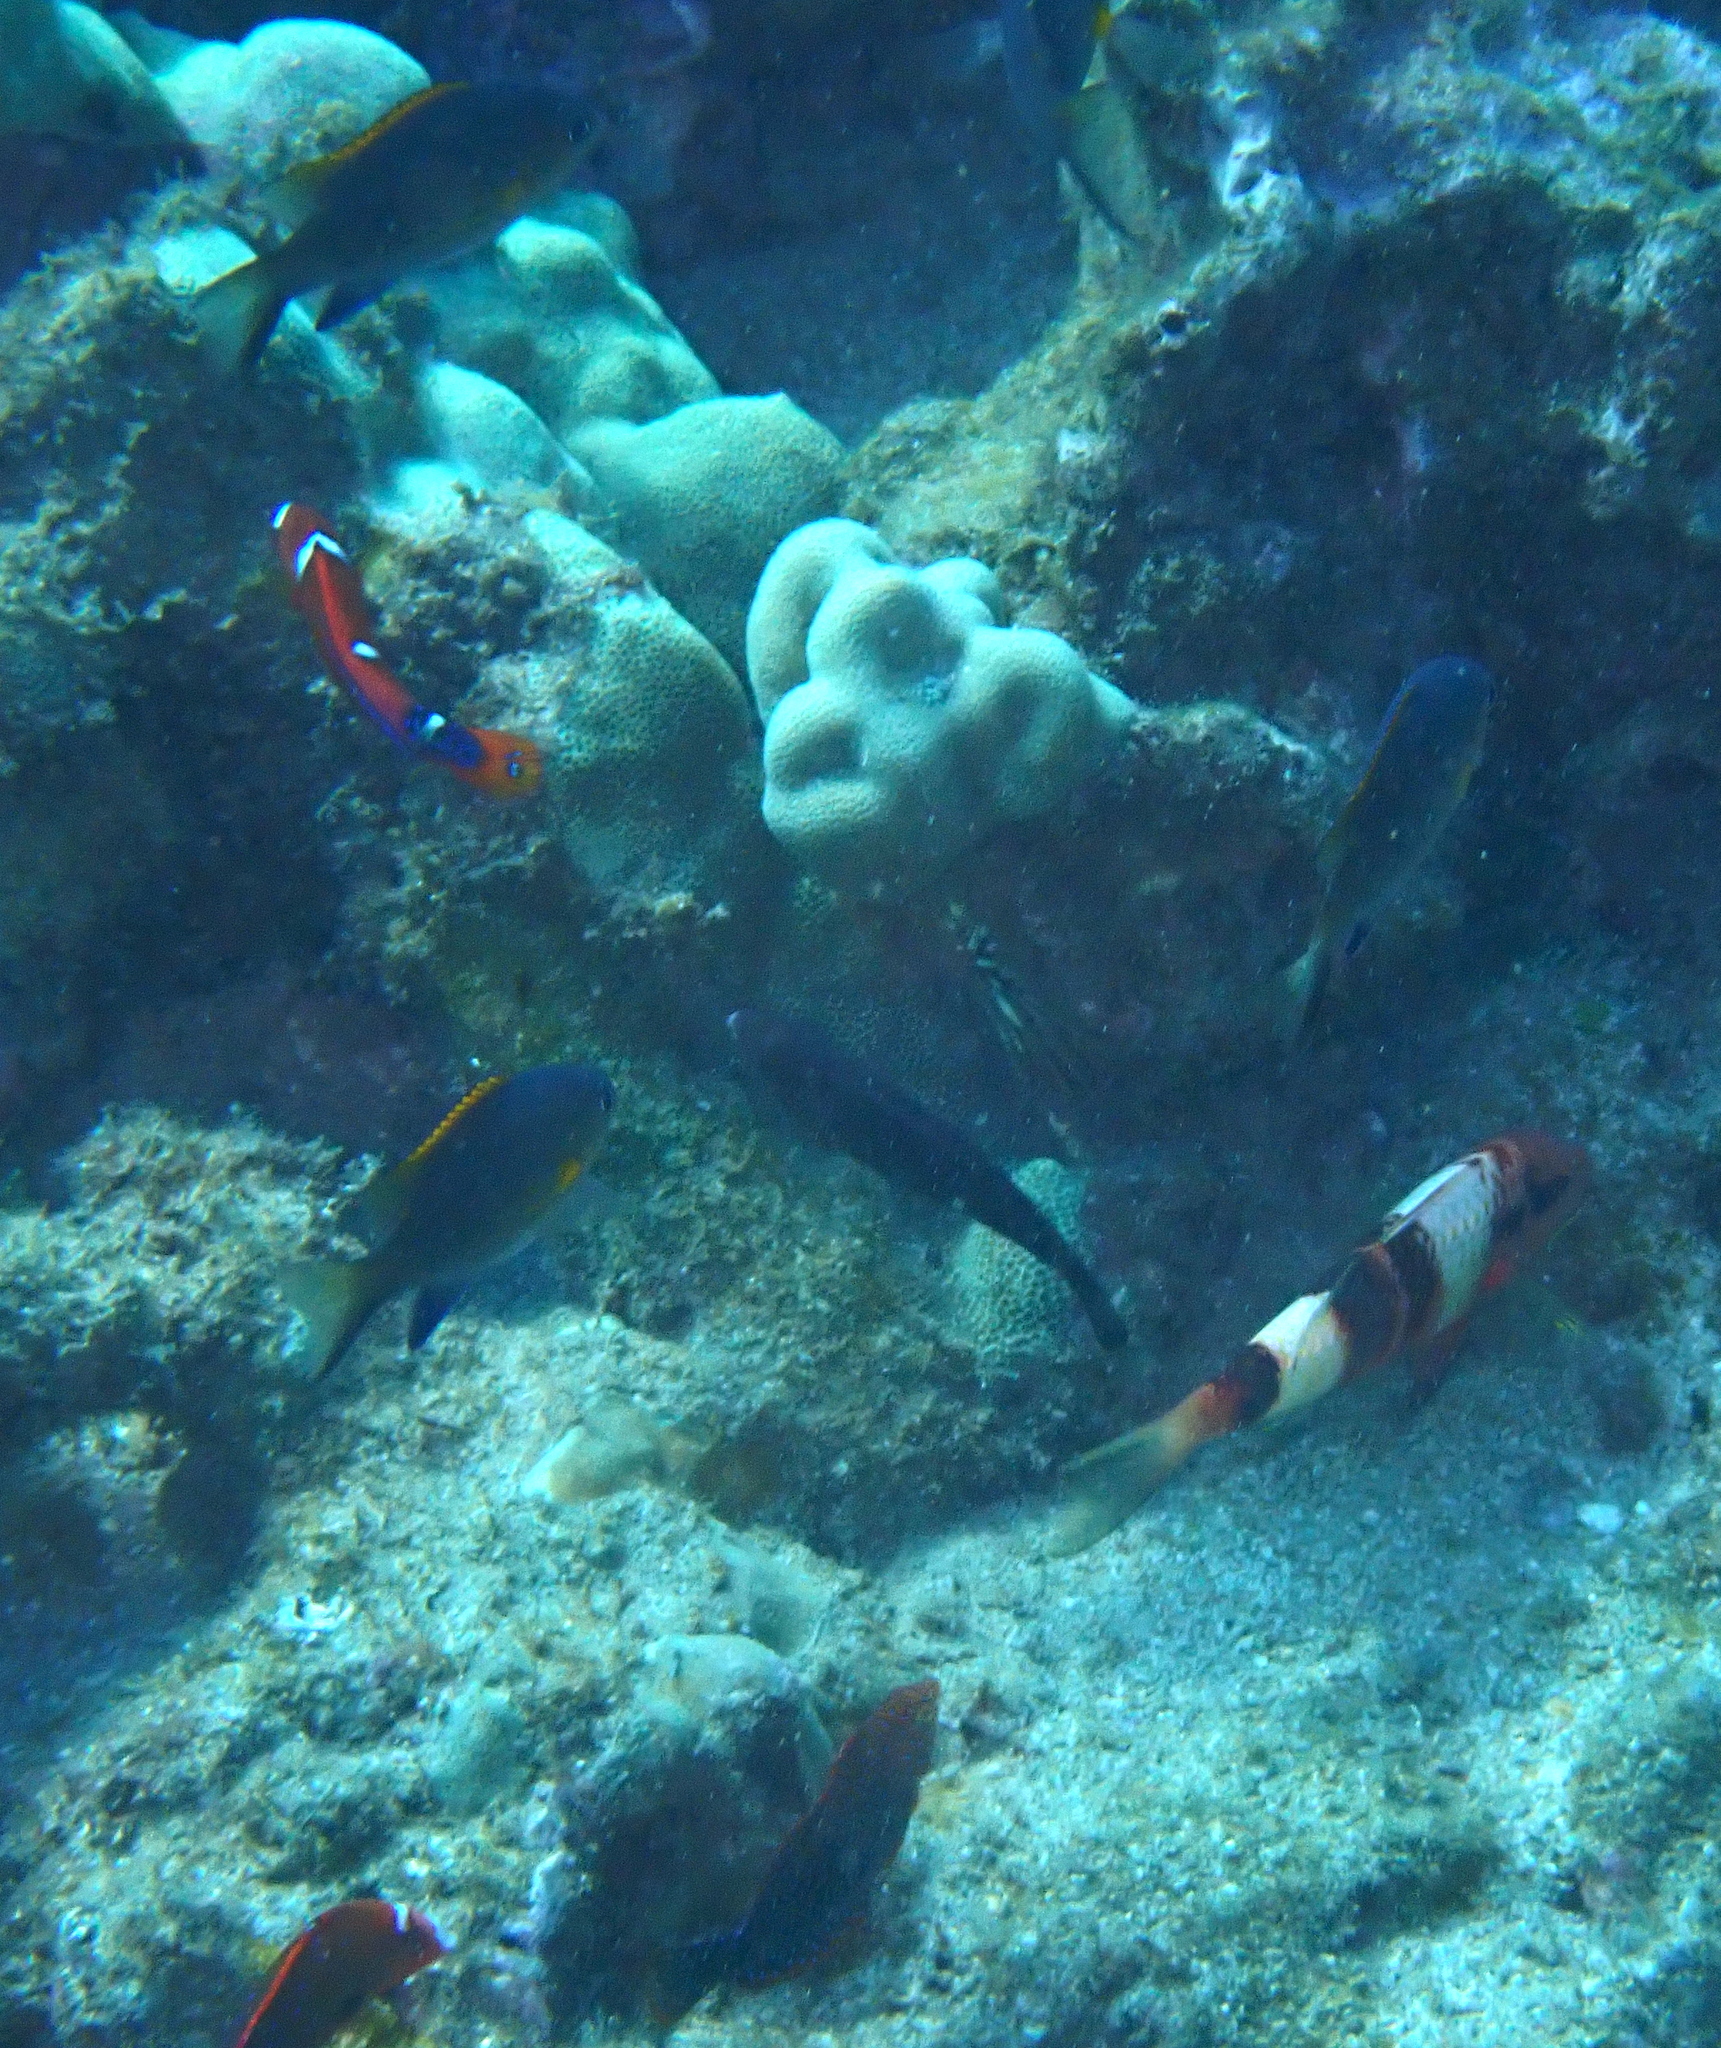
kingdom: Animalia
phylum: Chordata
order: Perciformes
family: Mullidae
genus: Parupeneus
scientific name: Parupeneus multifasciatus
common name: Manybar goatfish
